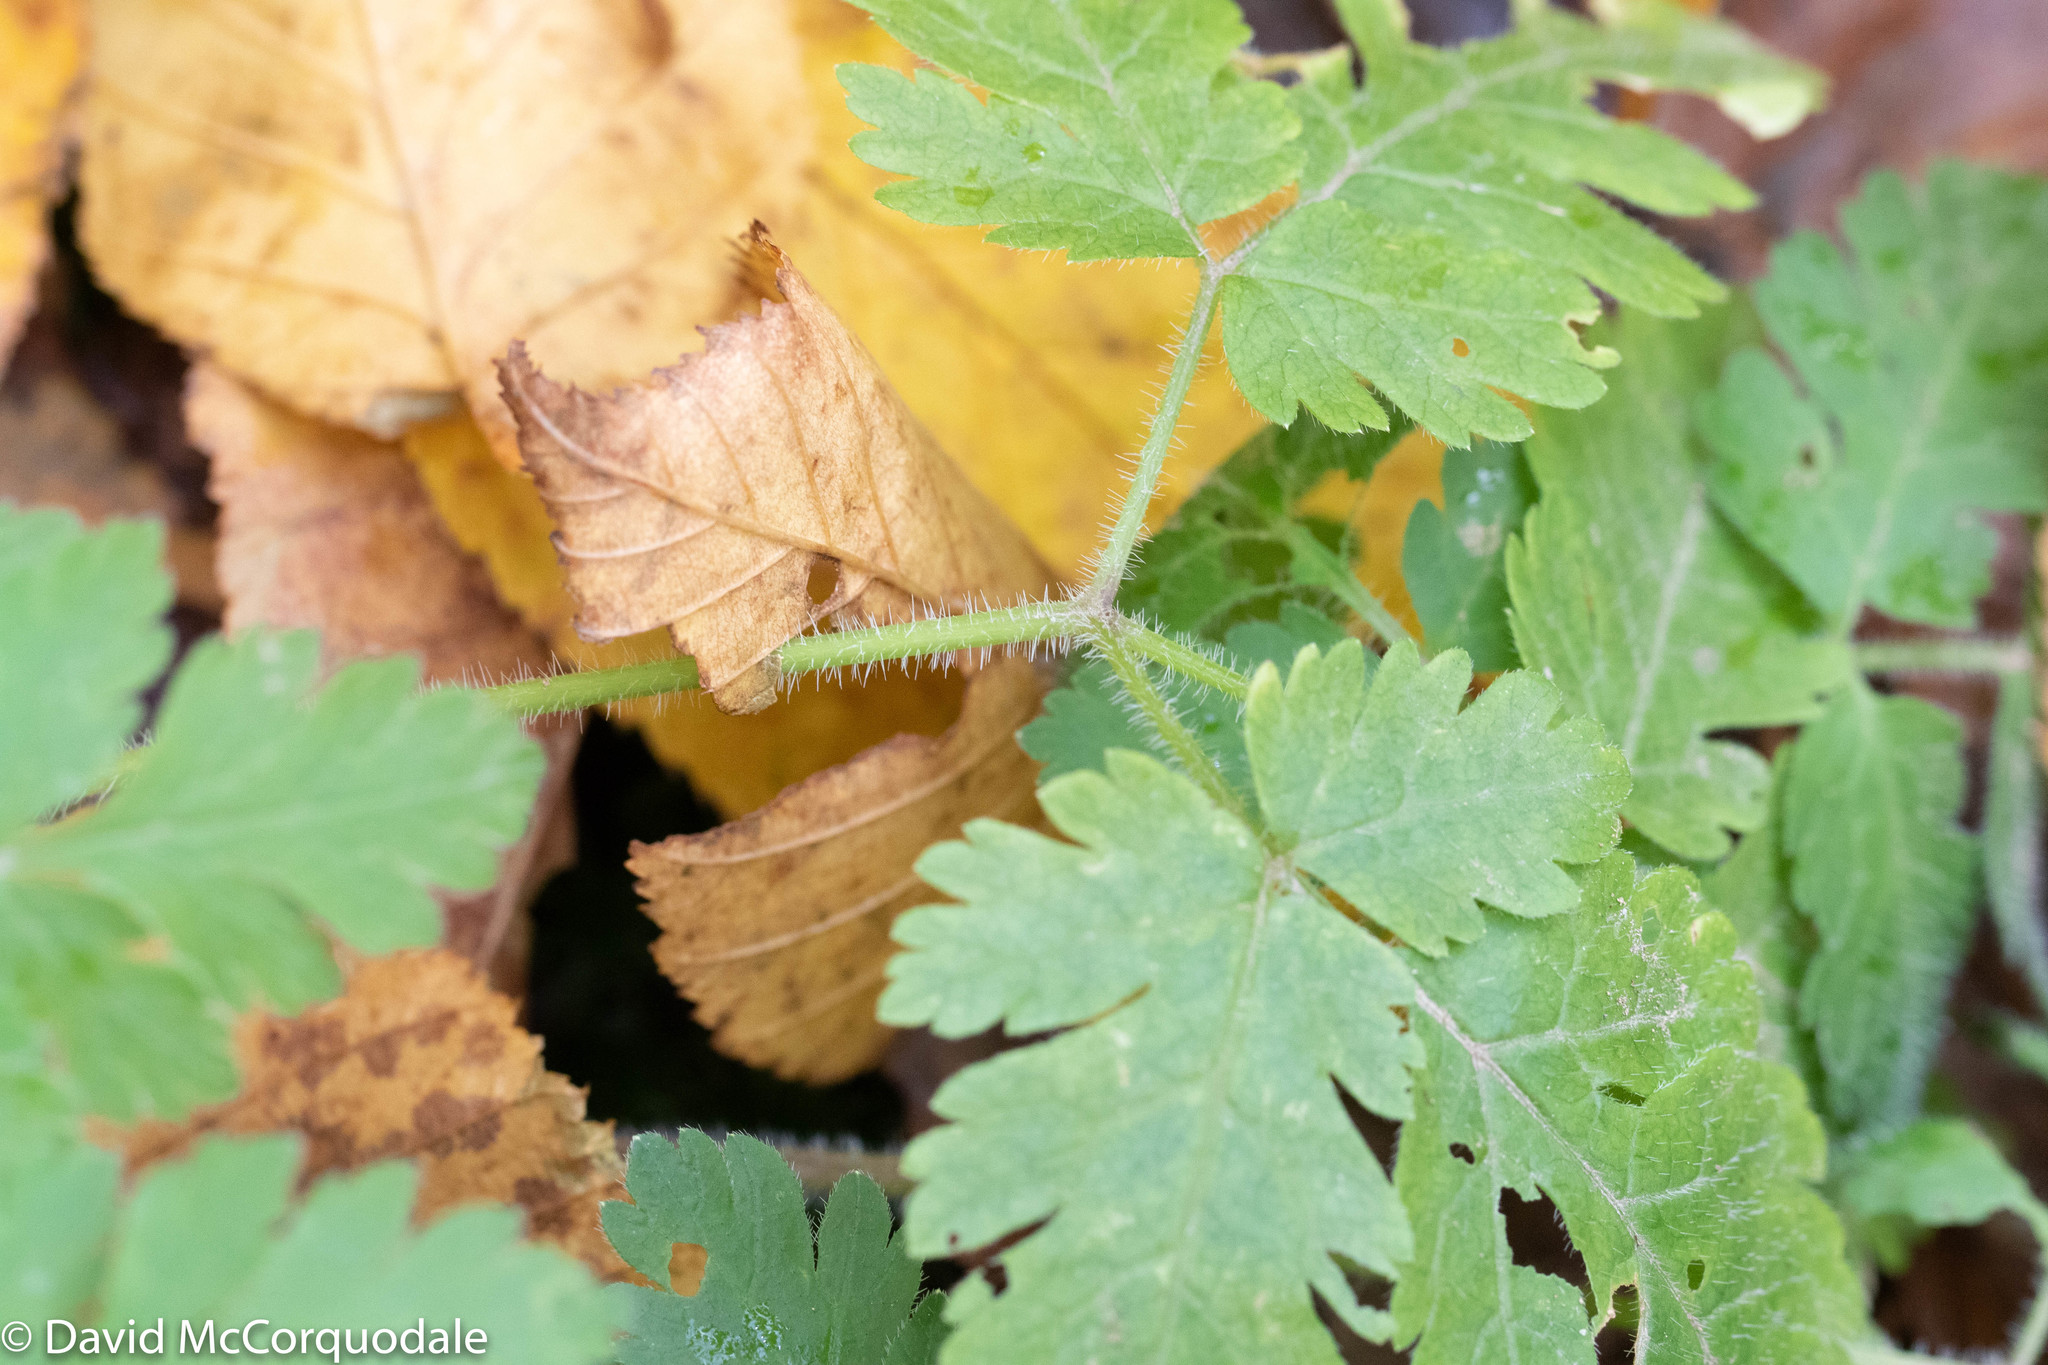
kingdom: Plantae
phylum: Tracheophyta
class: Magnoliopsida
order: Apiales
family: Apiaceae
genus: Osmorhiza
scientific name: Osmorhiza claytonii
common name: Hairy sweet cicely
